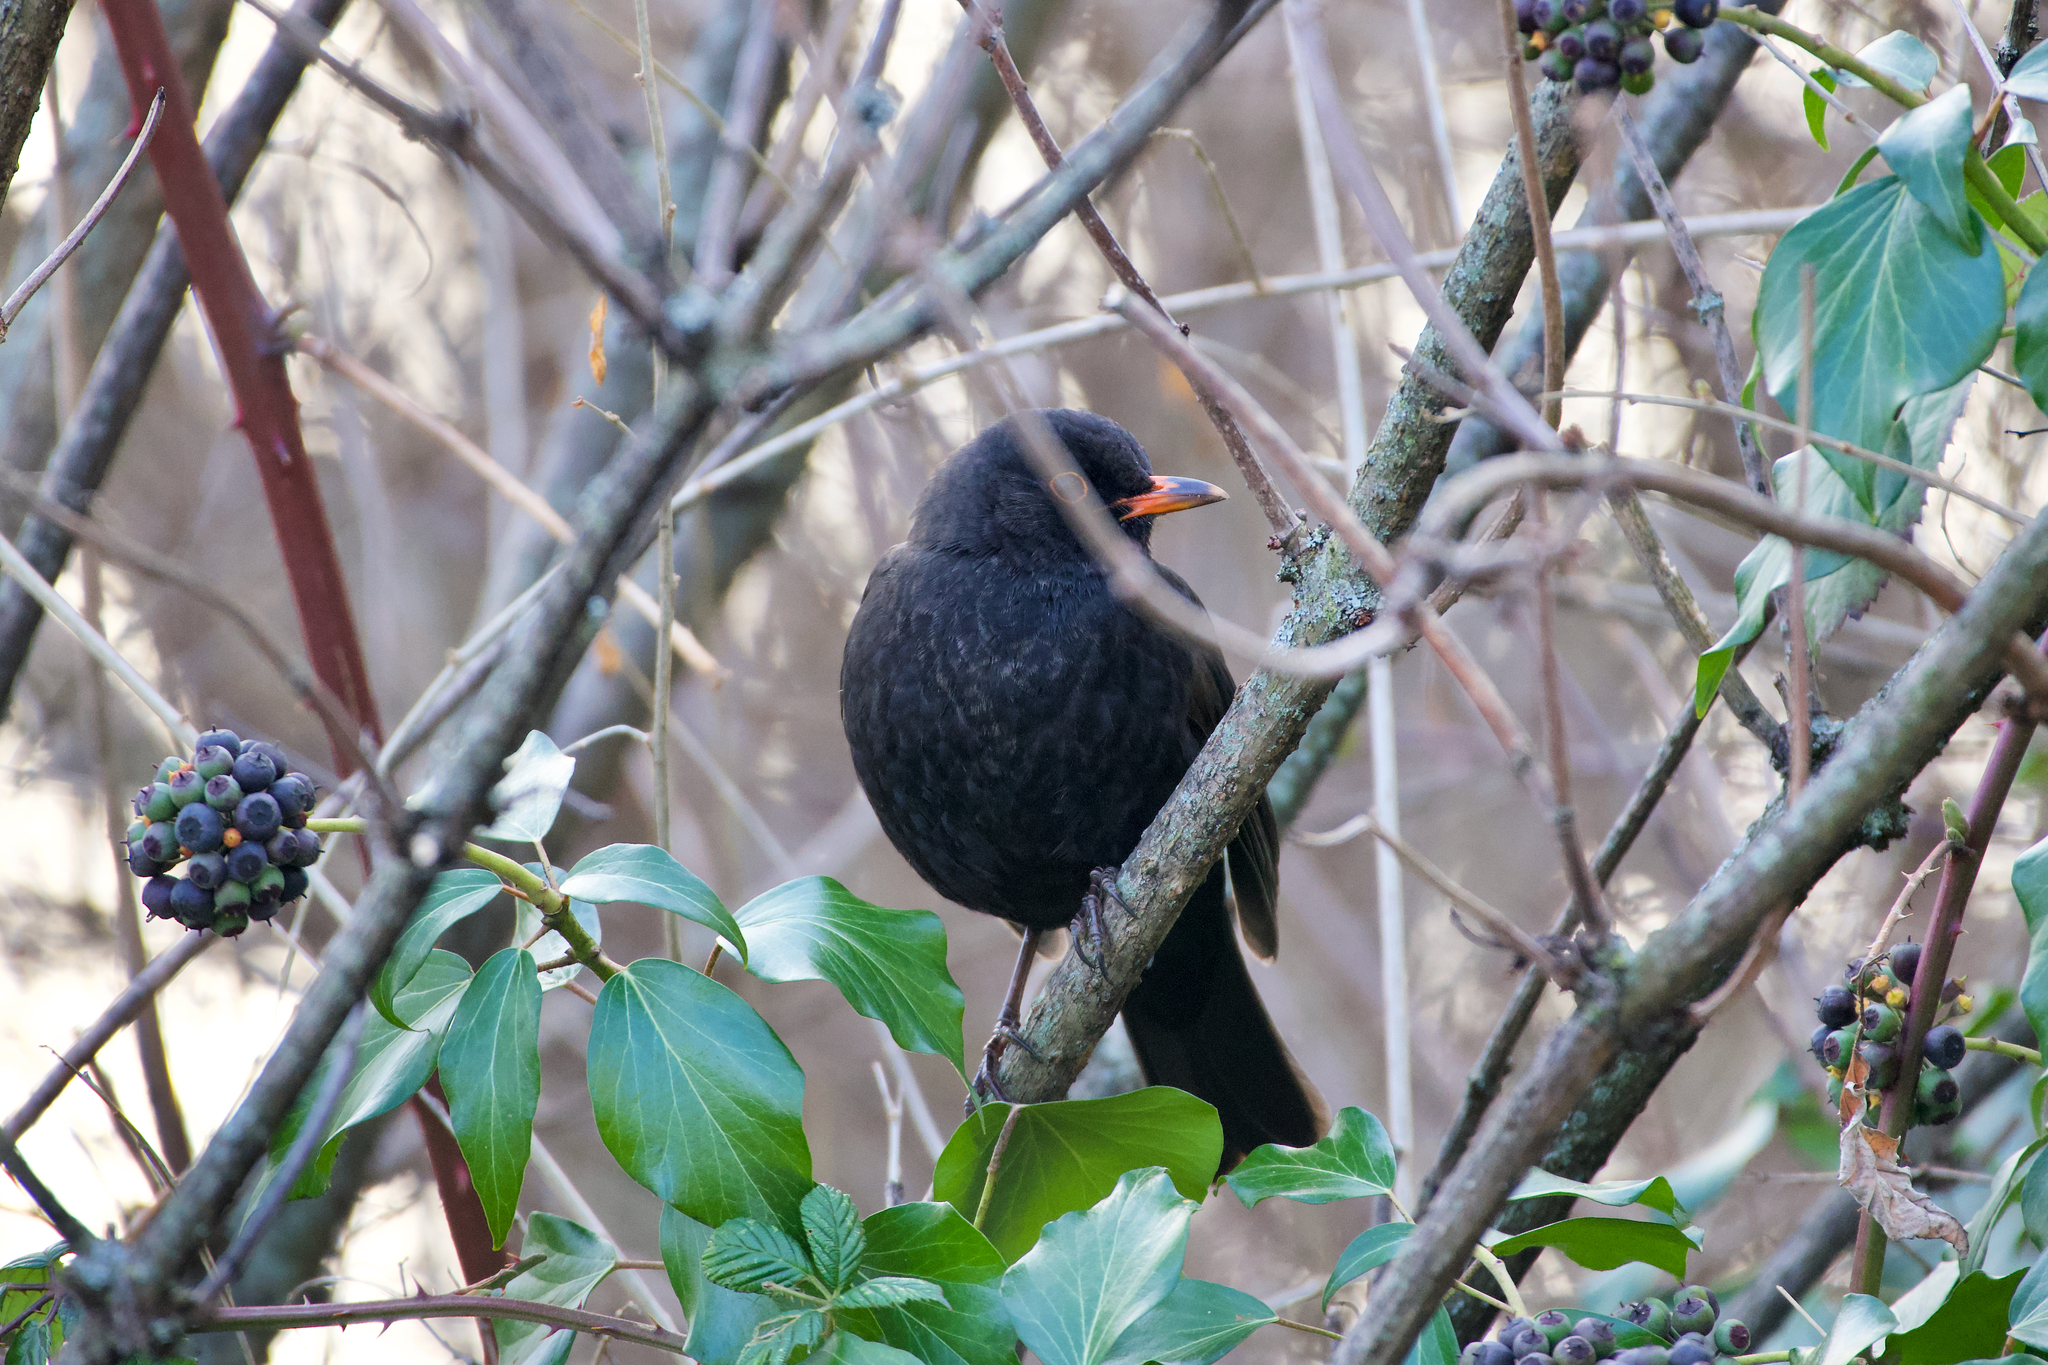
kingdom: Animalia
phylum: Chordata
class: Aves
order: Passeriformes
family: Turdidae
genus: Turdus
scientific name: Turdus merula
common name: Common blackbird
